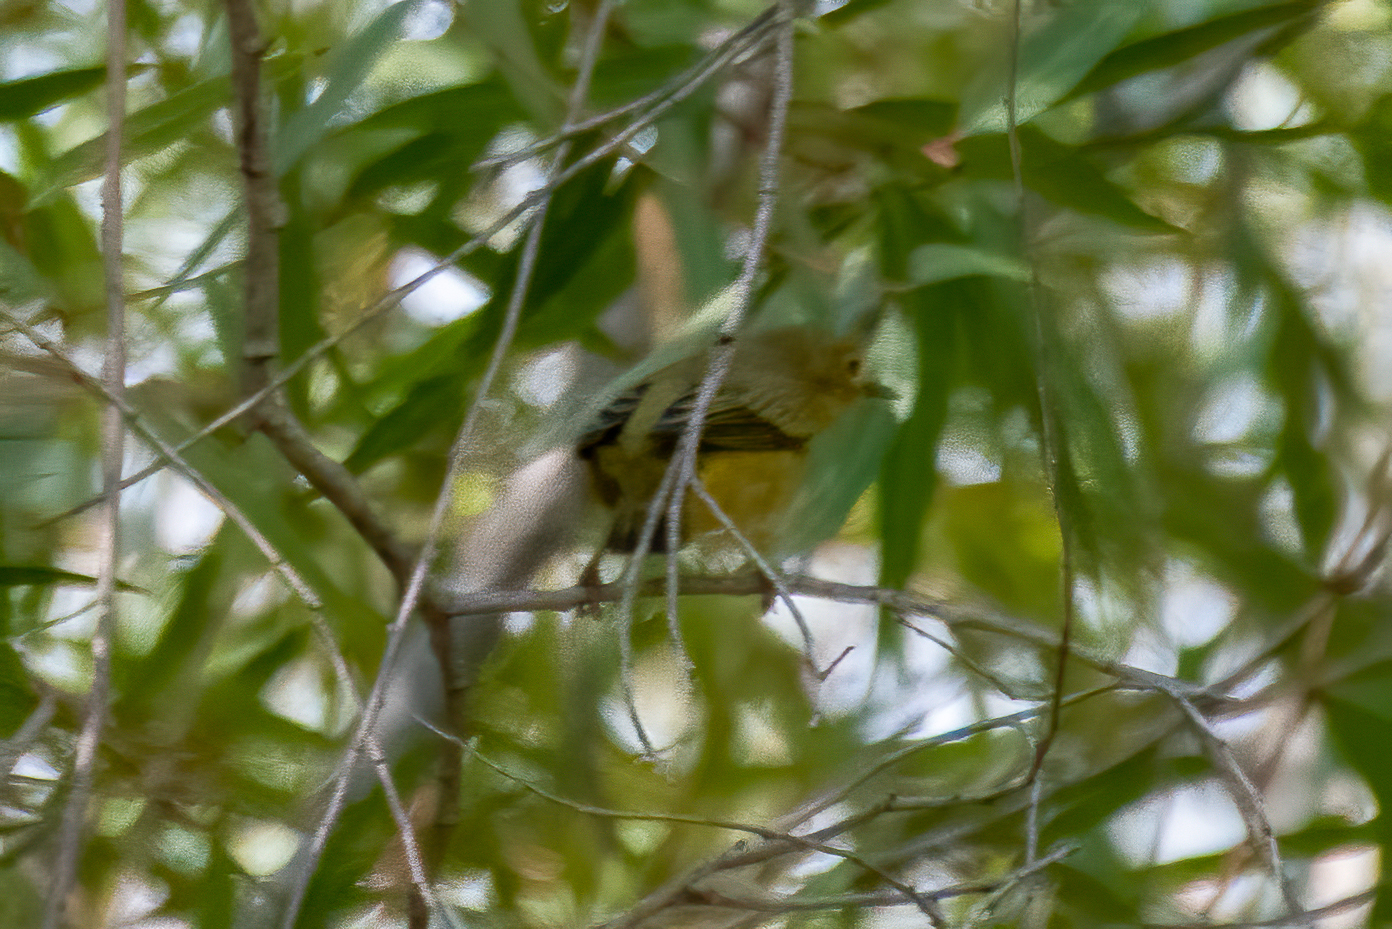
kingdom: Animalia
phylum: Chordata
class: Aves
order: Passeriformes
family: Parulidae
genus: Setophaga
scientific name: Setophaga petechia
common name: Yellow warbler
